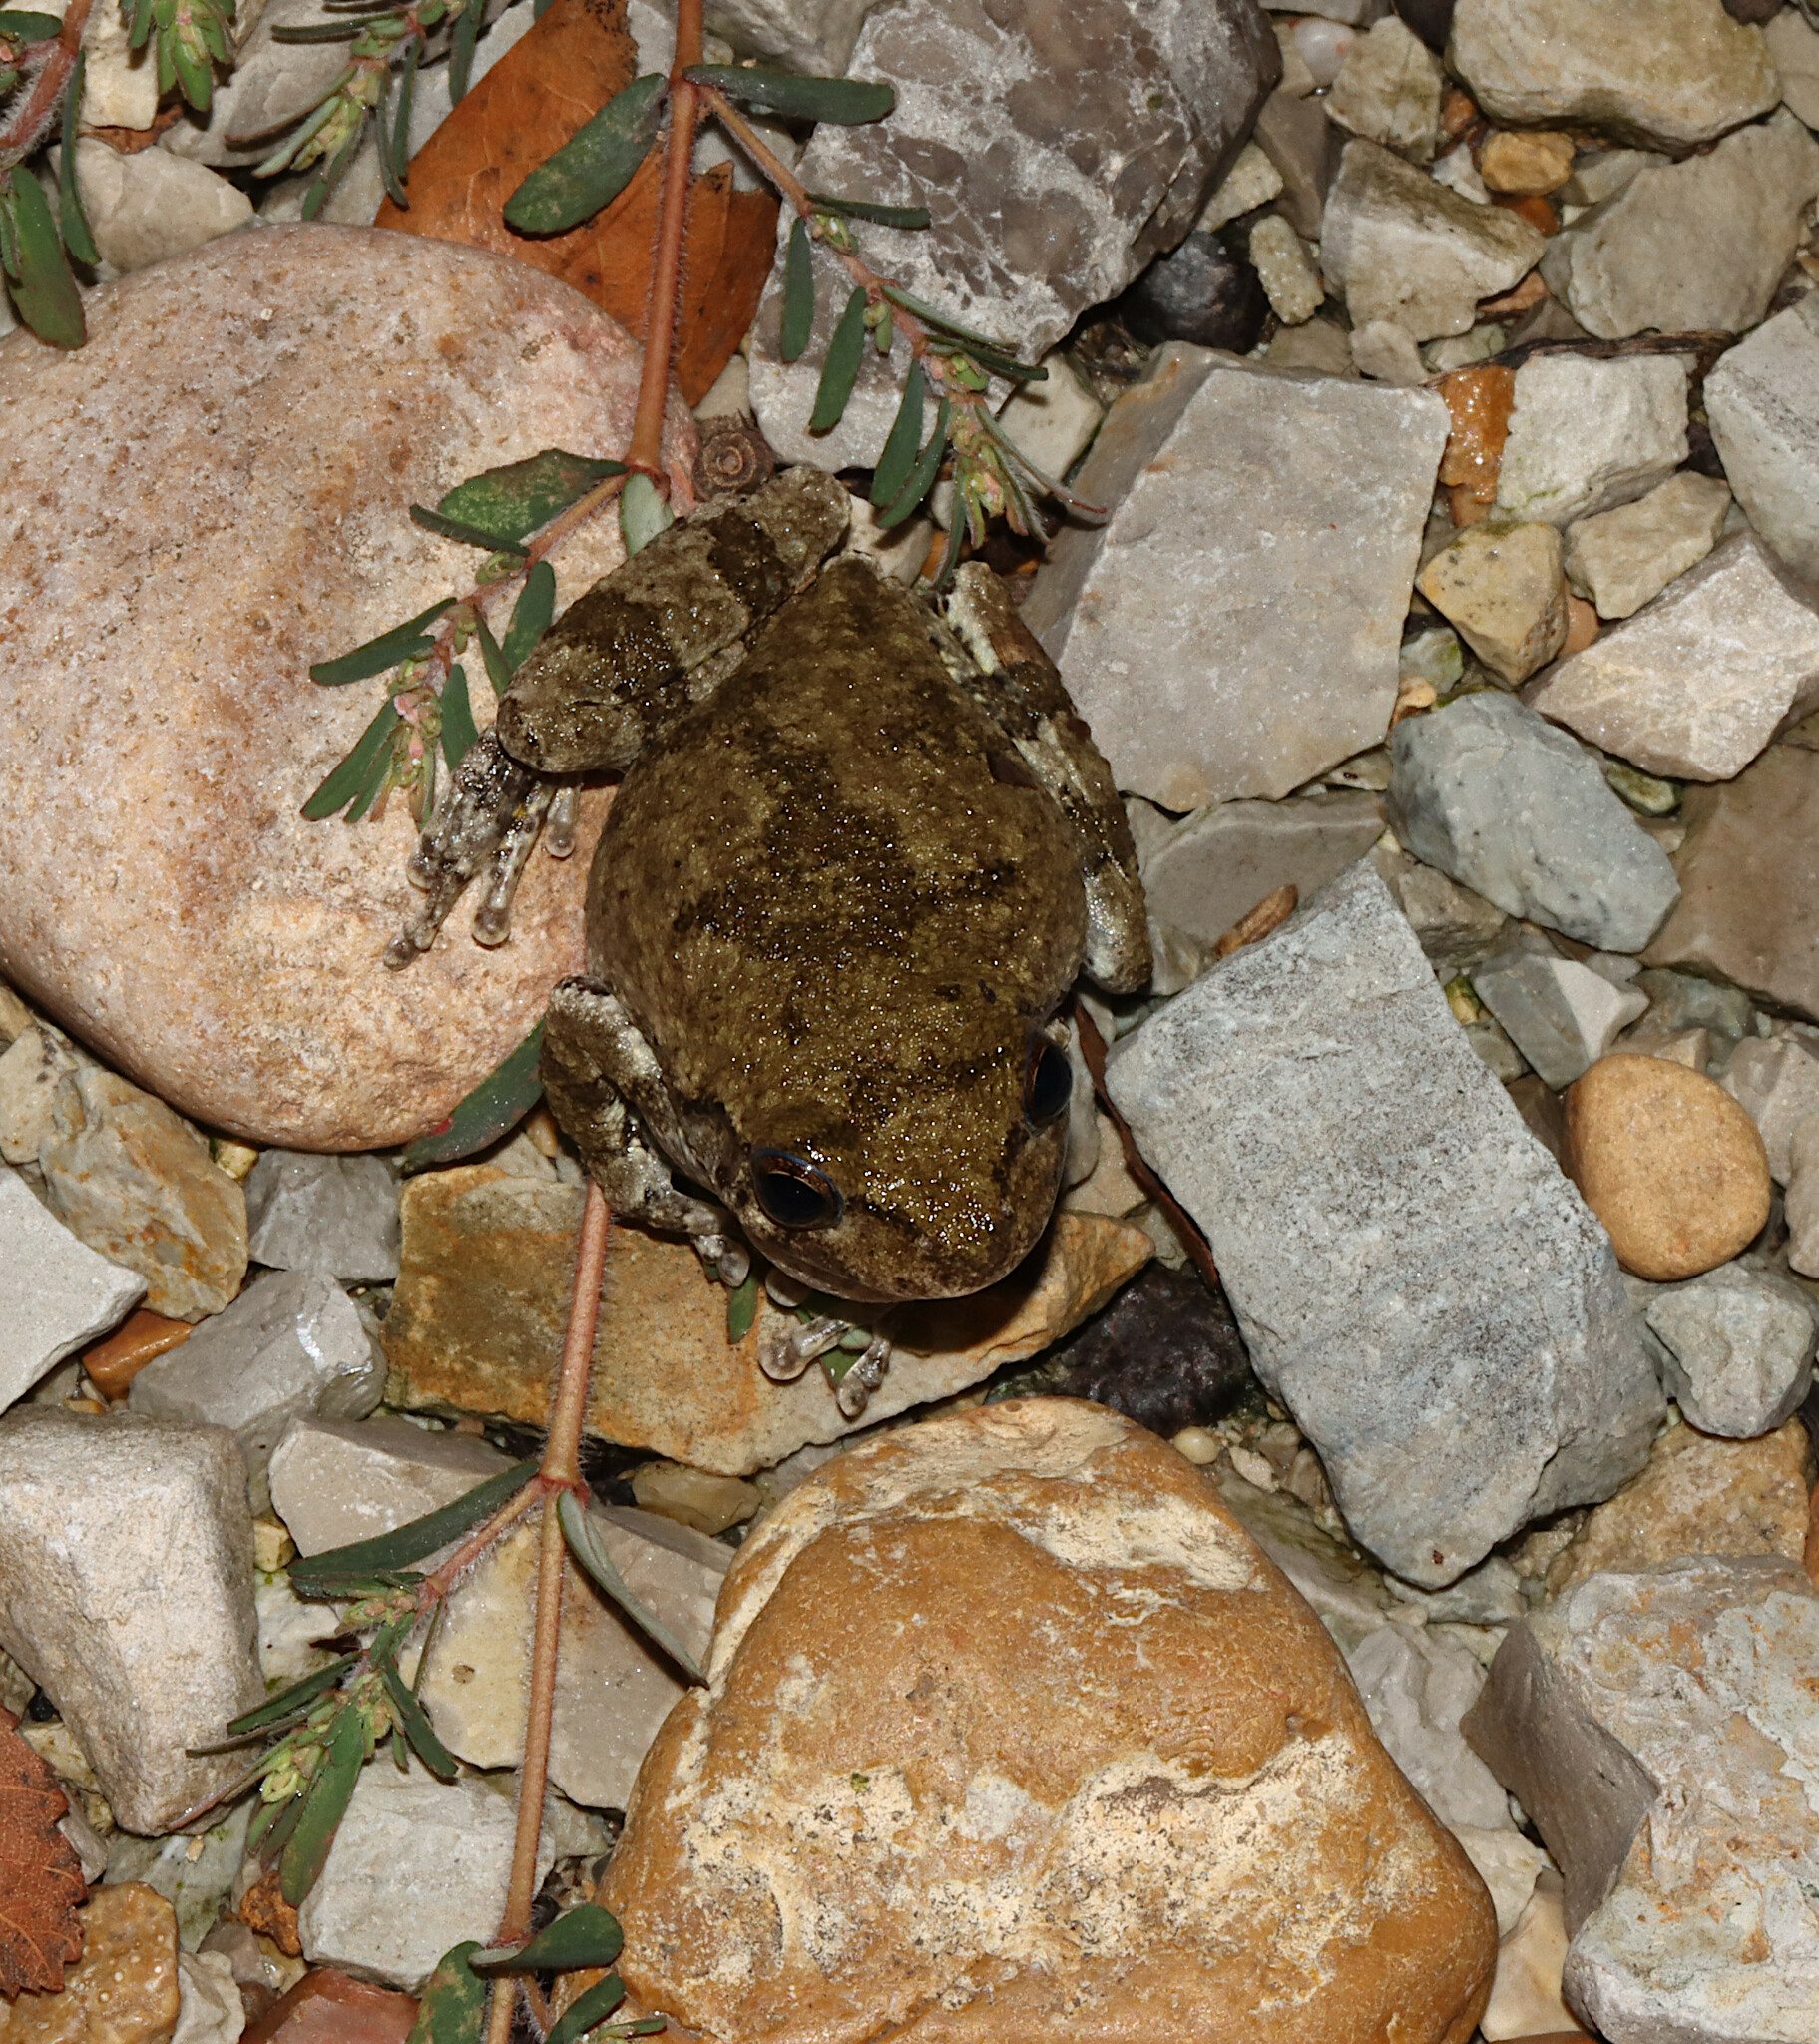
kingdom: Animalia
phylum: Chordata
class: Amphibia
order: Anura
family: Hylidae
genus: Dryophytes
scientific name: Dryophytes chrysoscelis
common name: Cope's gray treefrog
